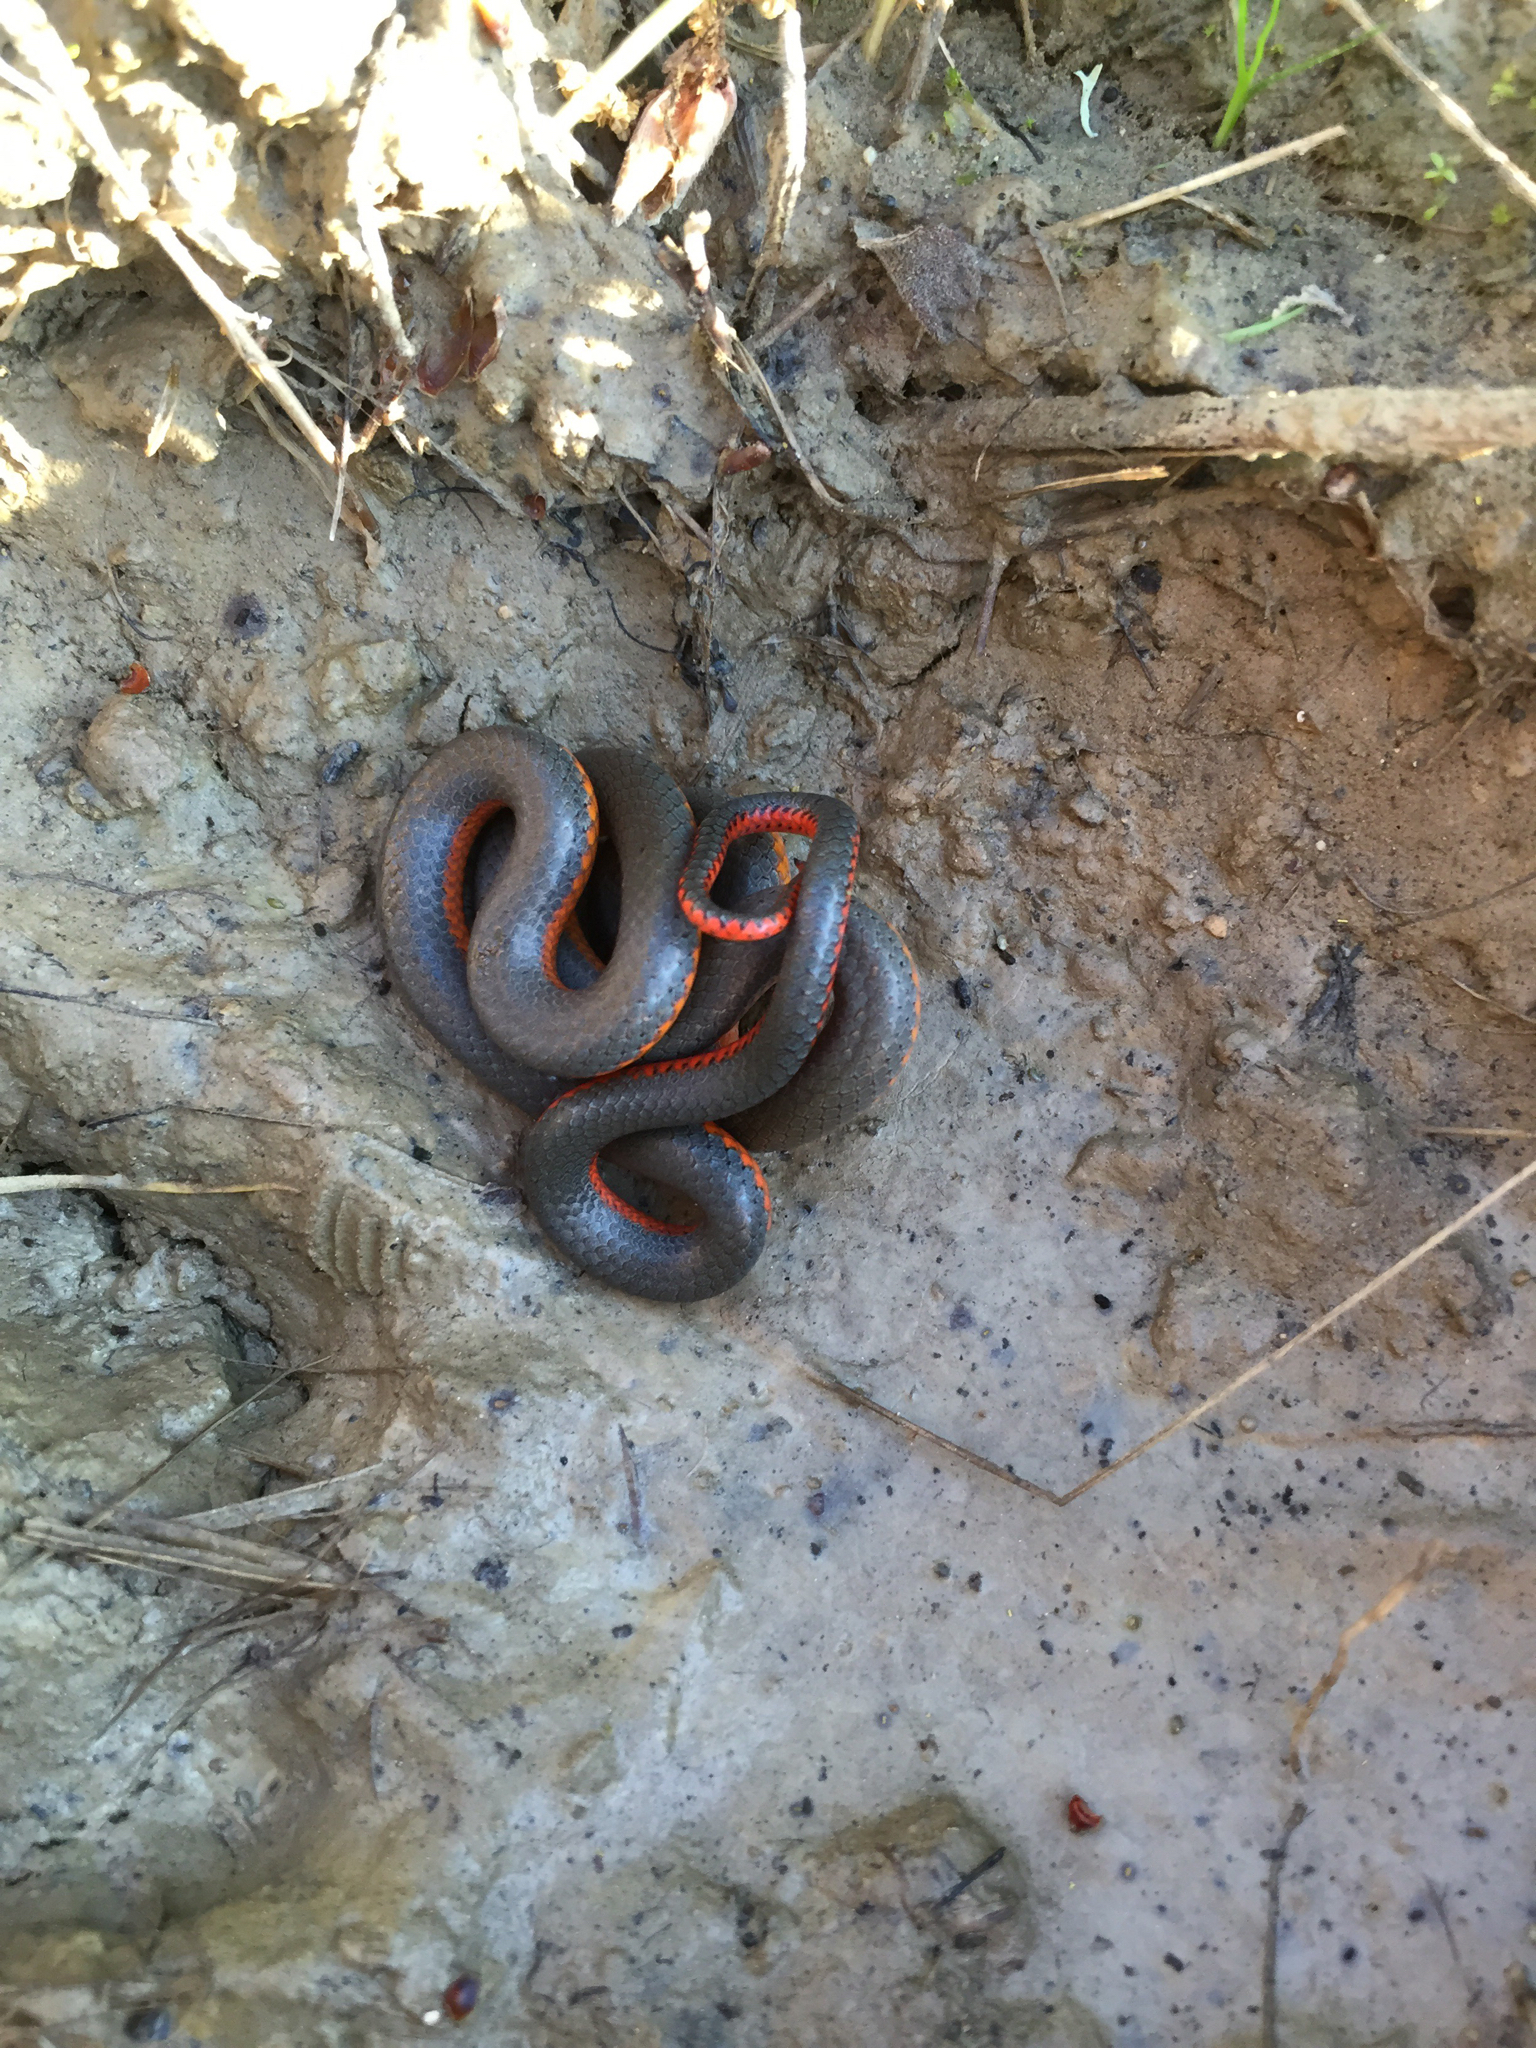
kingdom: Animalia
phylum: Chordata
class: Squamata
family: Colubridae
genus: Diadophis
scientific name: Diadophis punctatus
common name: Ringneck snake
